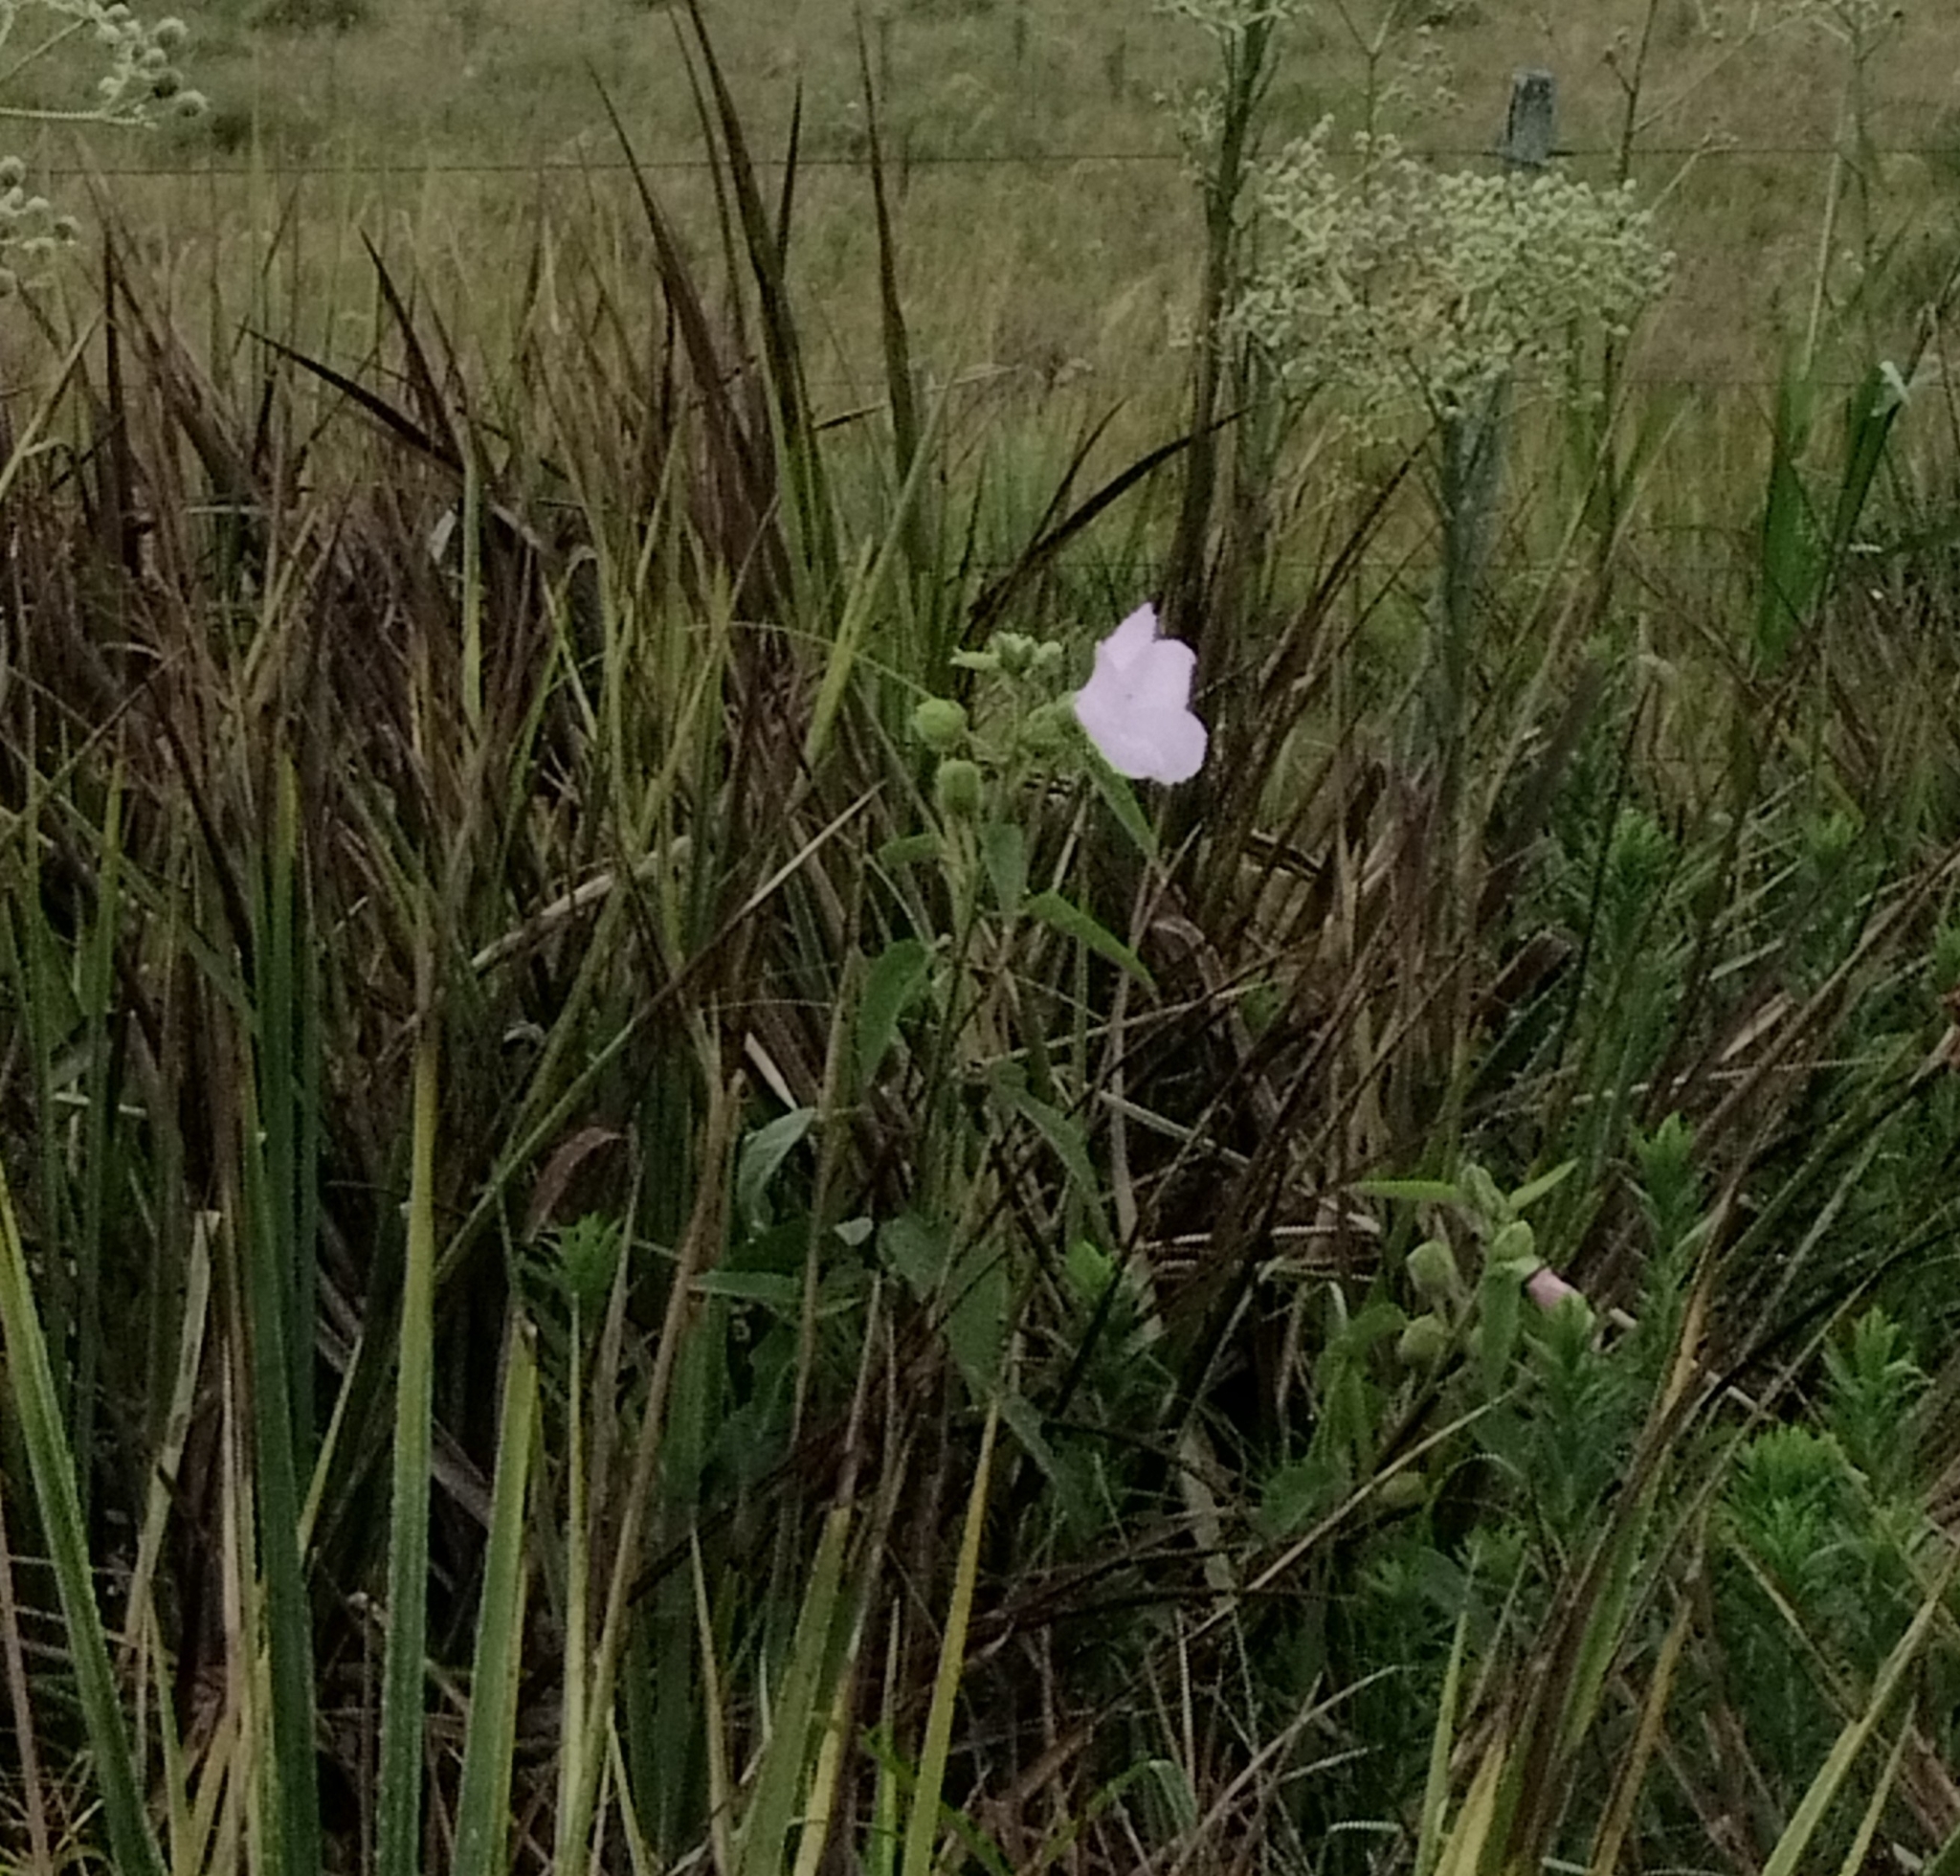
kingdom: Plantae
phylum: Tracheophyta
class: Magnoliopsida
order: Malvales
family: Malvaceae
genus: Hibiscus
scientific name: Hibiscus striatus
